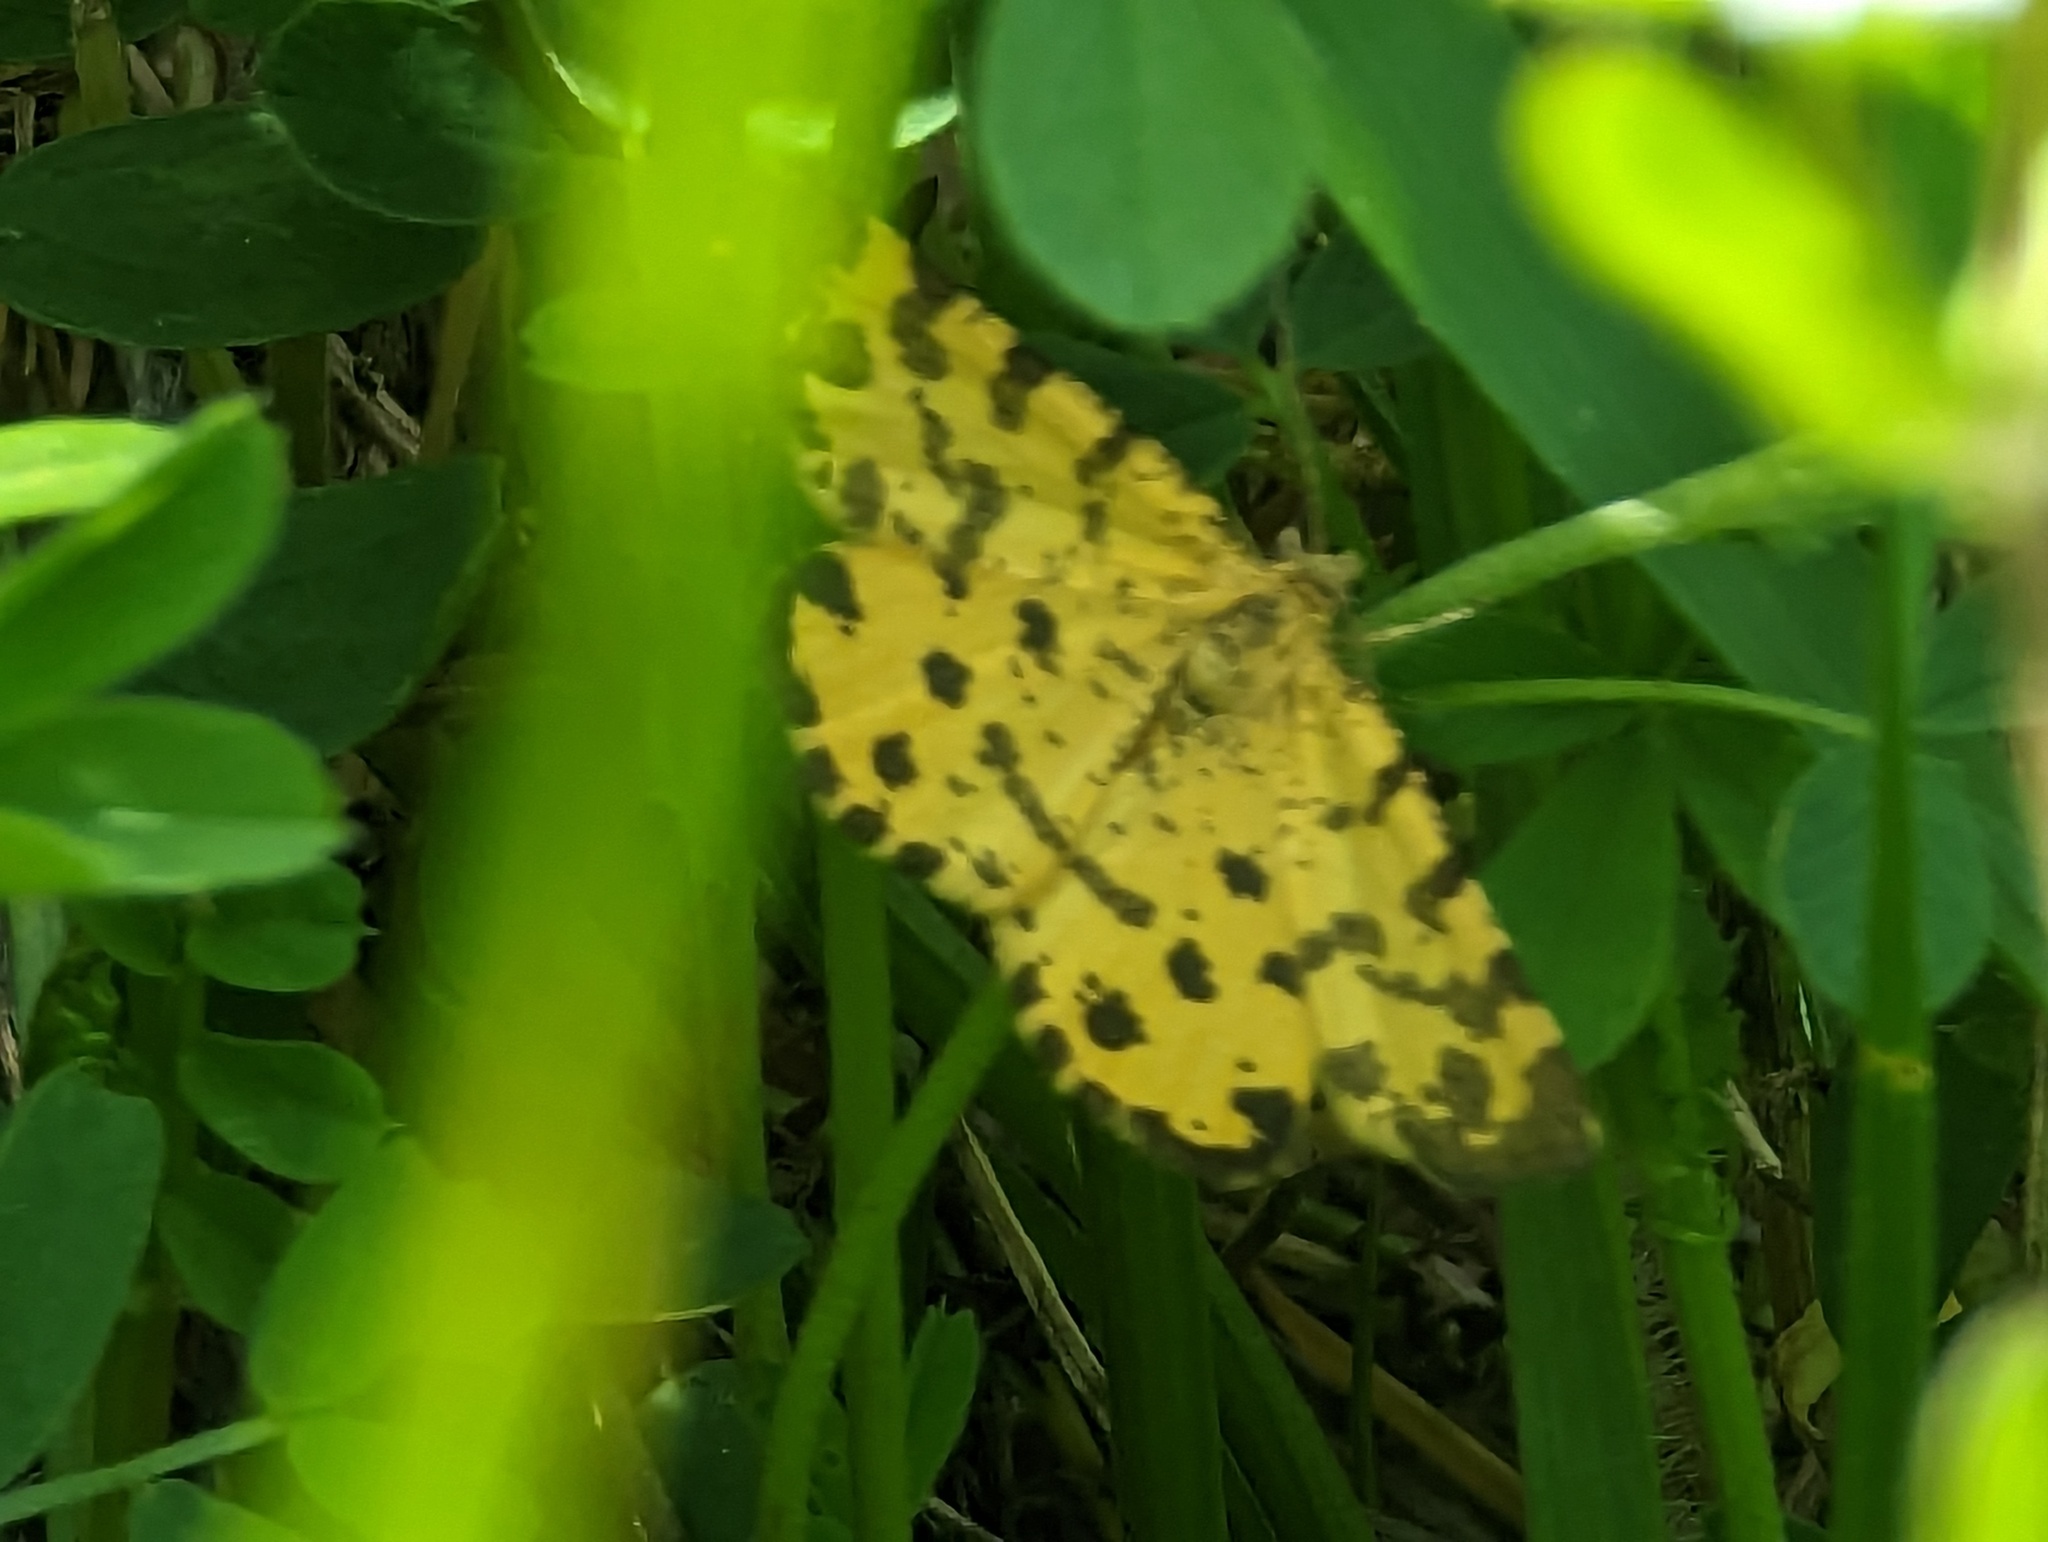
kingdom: Animalia
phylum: Arthropoda
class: Insecta
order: Lepidoptera
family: Geometridae
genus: Pseudopanthera
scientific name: Pseudopanthera macularia
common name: Speckled yellow
